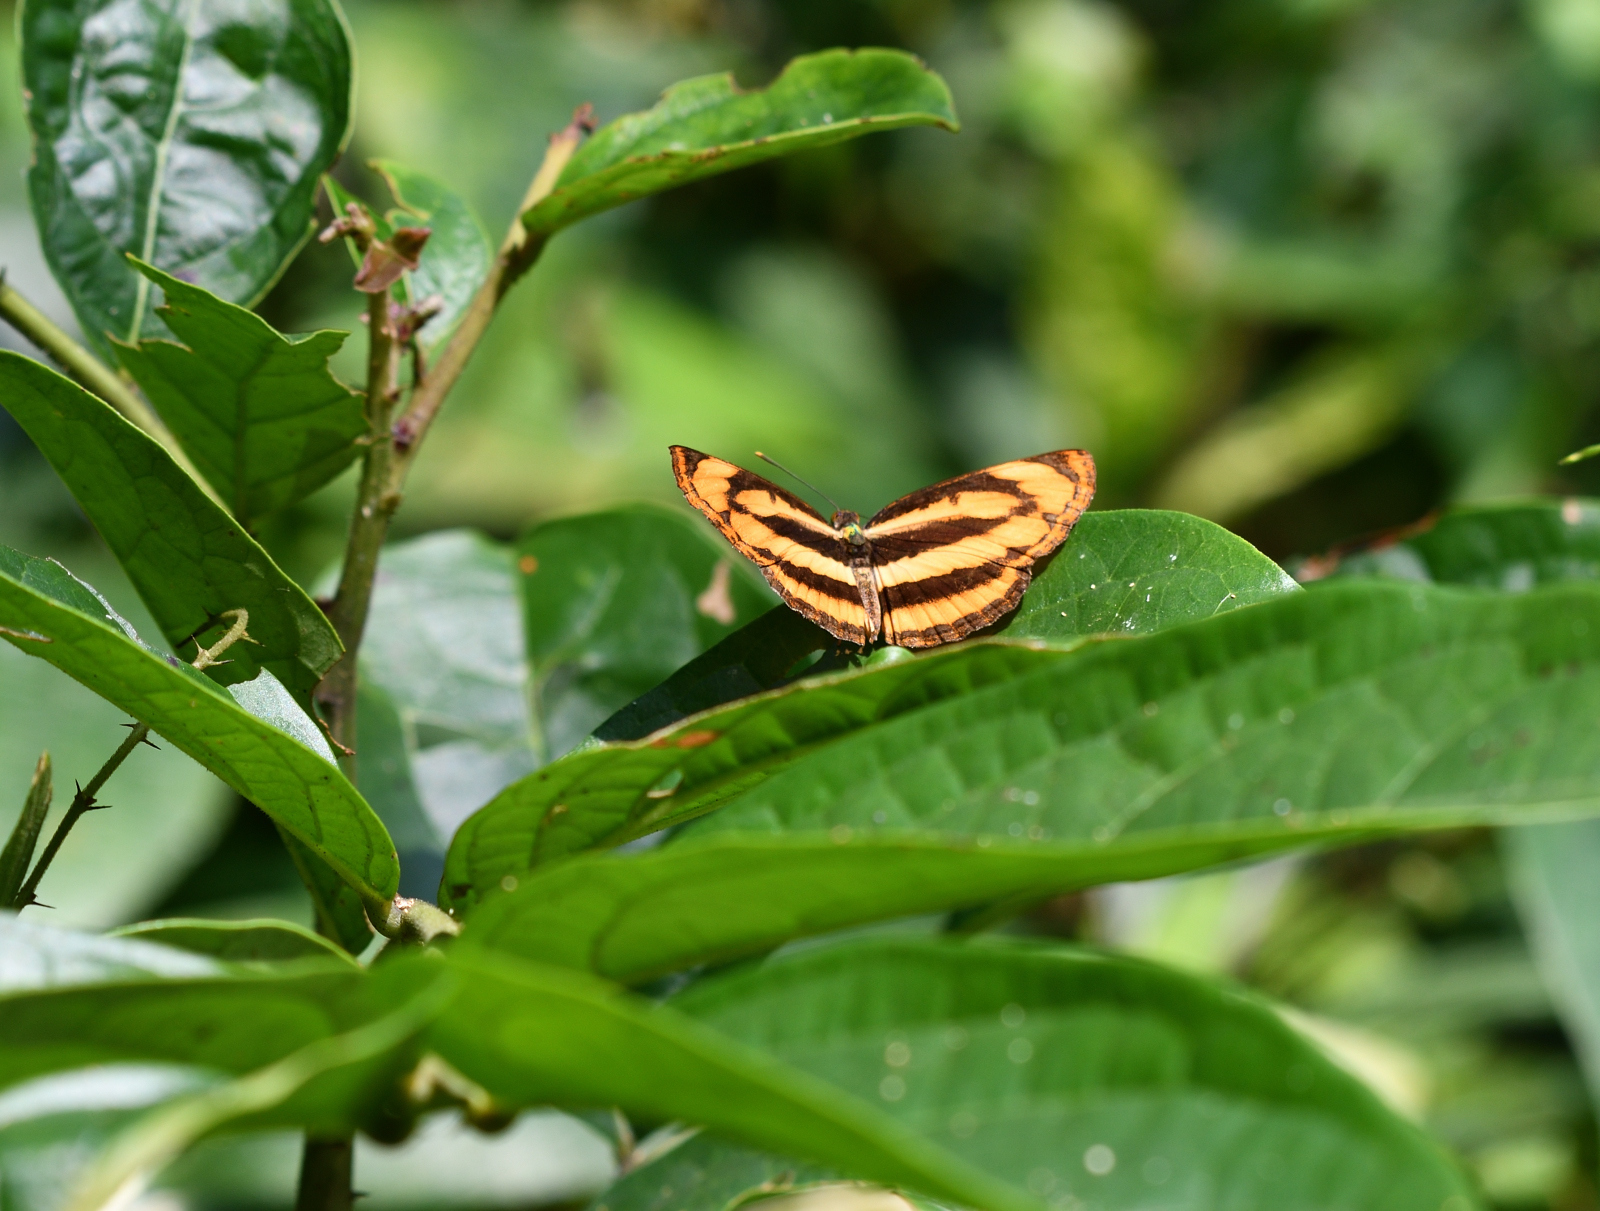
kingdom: Animalia
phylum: Arthropoda
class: Insecta
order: Lepidoptera
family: Nymphalidae
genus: Pantoporia
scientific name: Pantoporia hordonia
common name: Common lascar
